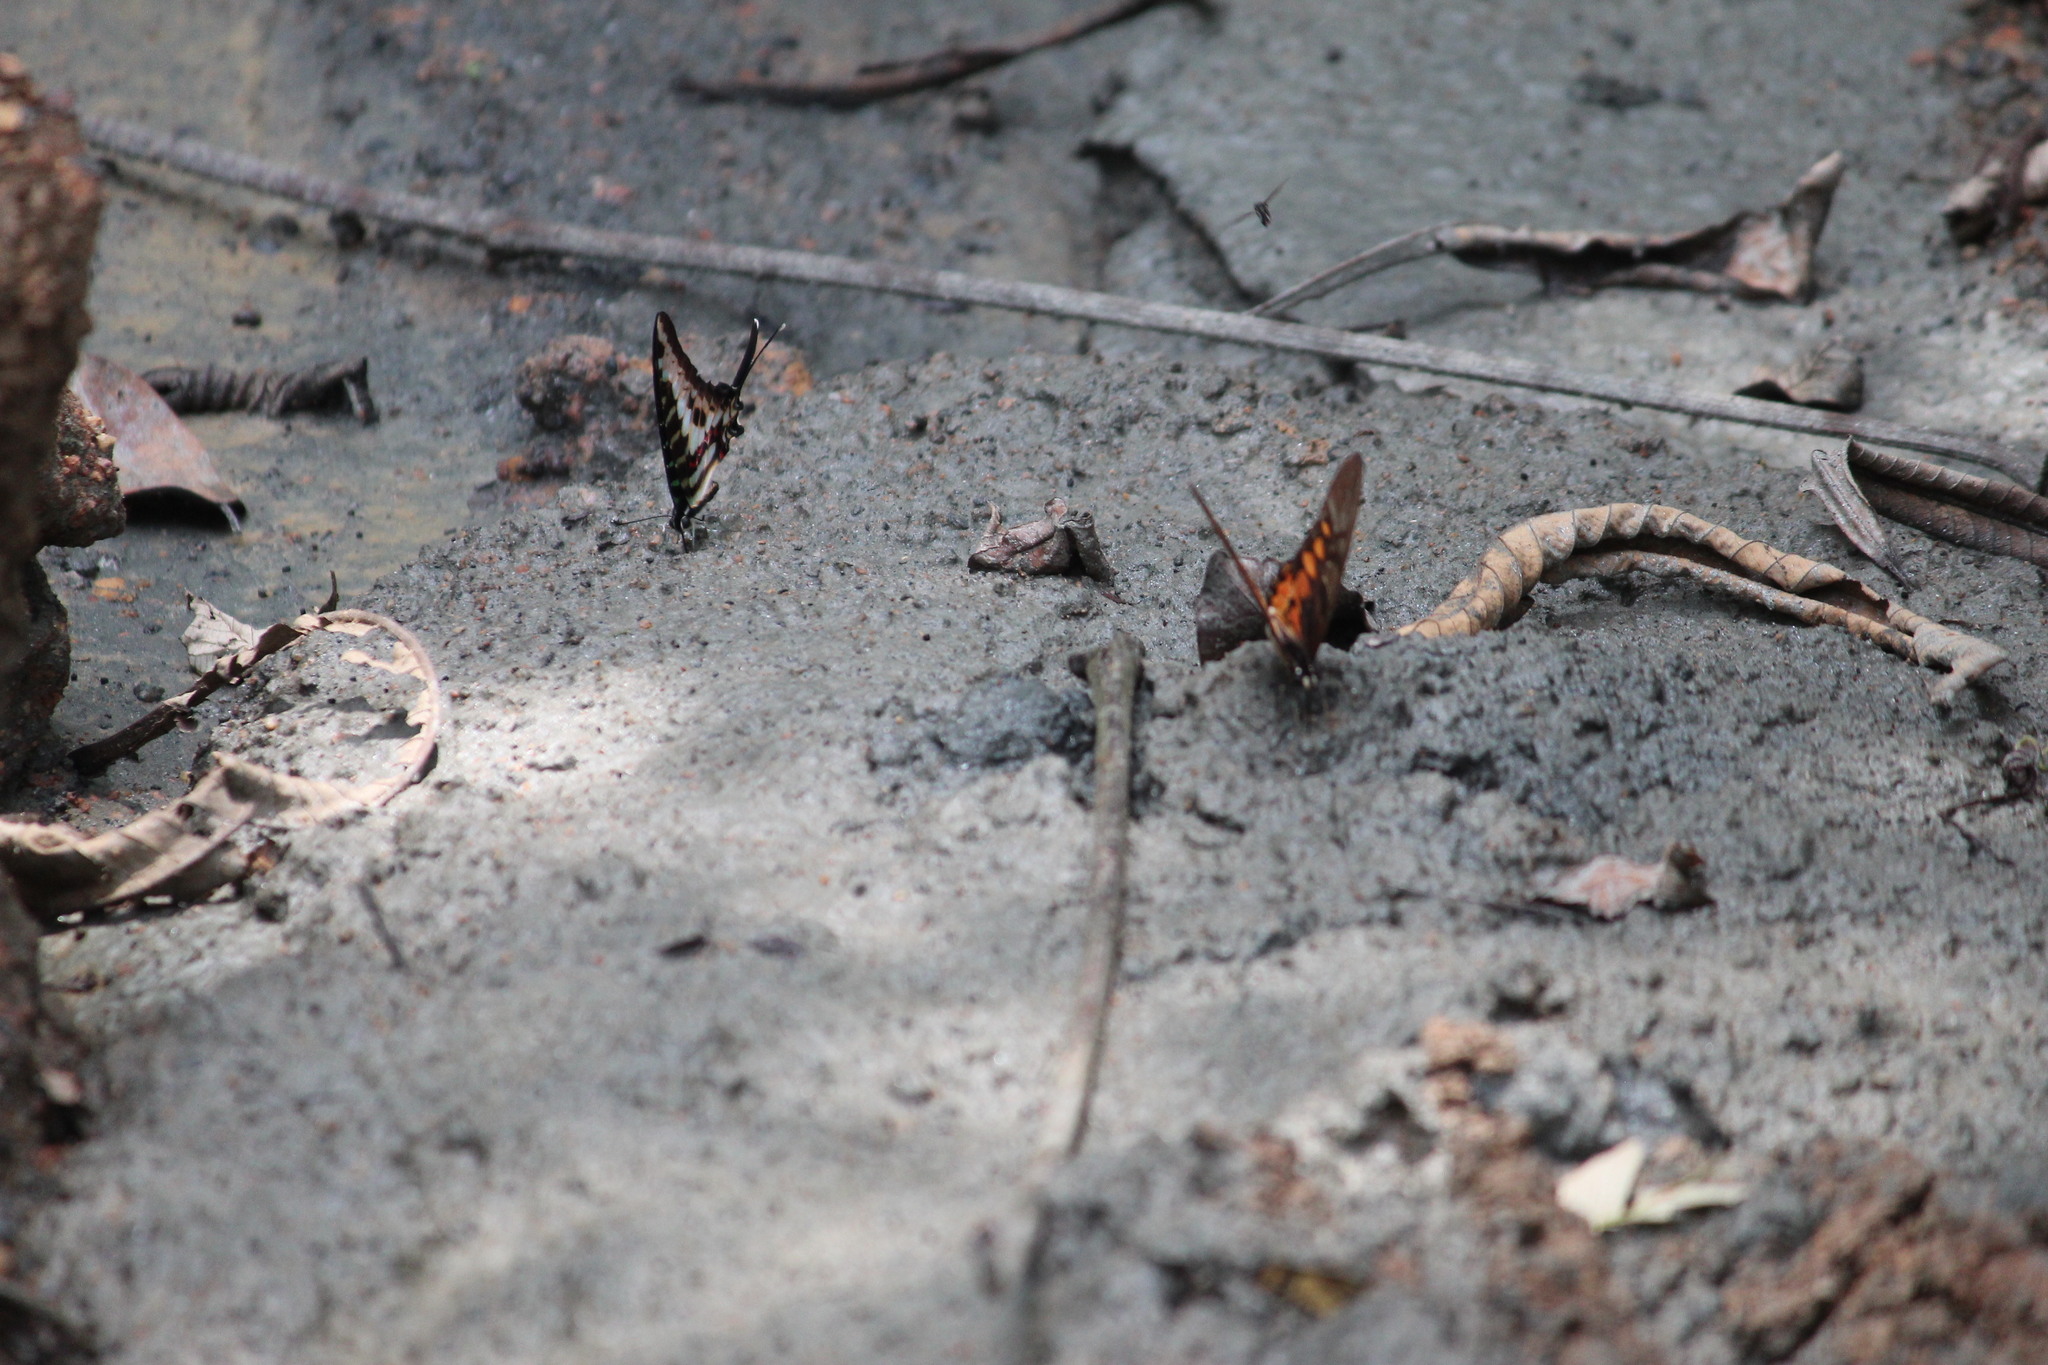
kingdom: Animalia
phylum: Arthropoda
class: Insecta
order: Lepidoptera
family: Papilionidae
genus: Graphium
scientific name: Graphium ridleyanus
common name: Acraea swordtail
